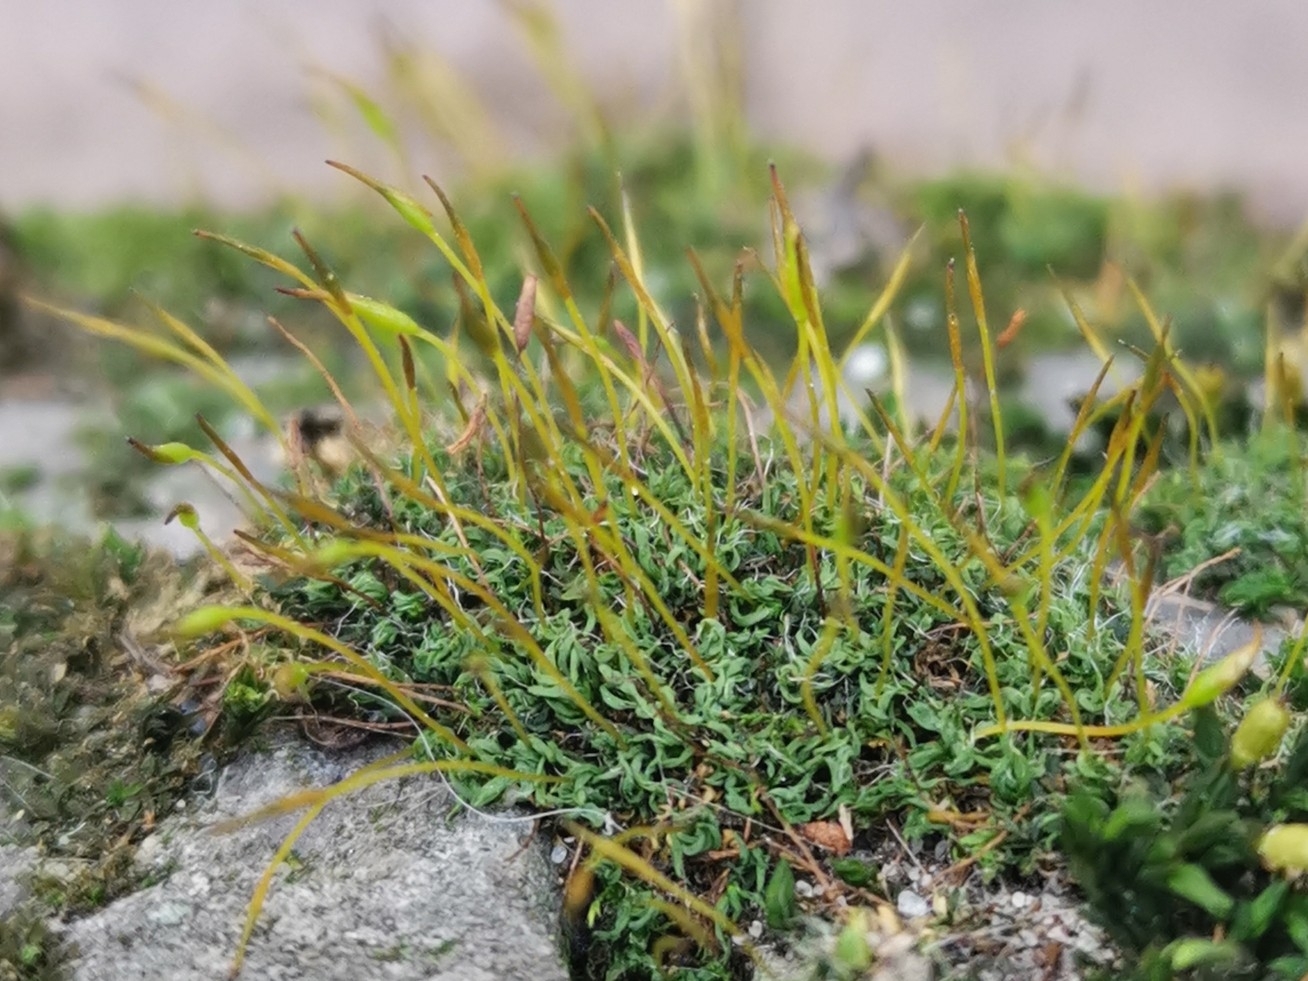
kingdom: Plantae
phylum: Bryophyta
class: Bryopsida
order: Pottiales
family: Pottiaceae
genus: Tortula
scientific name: Tortula muralis
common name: Wall screw-moss
